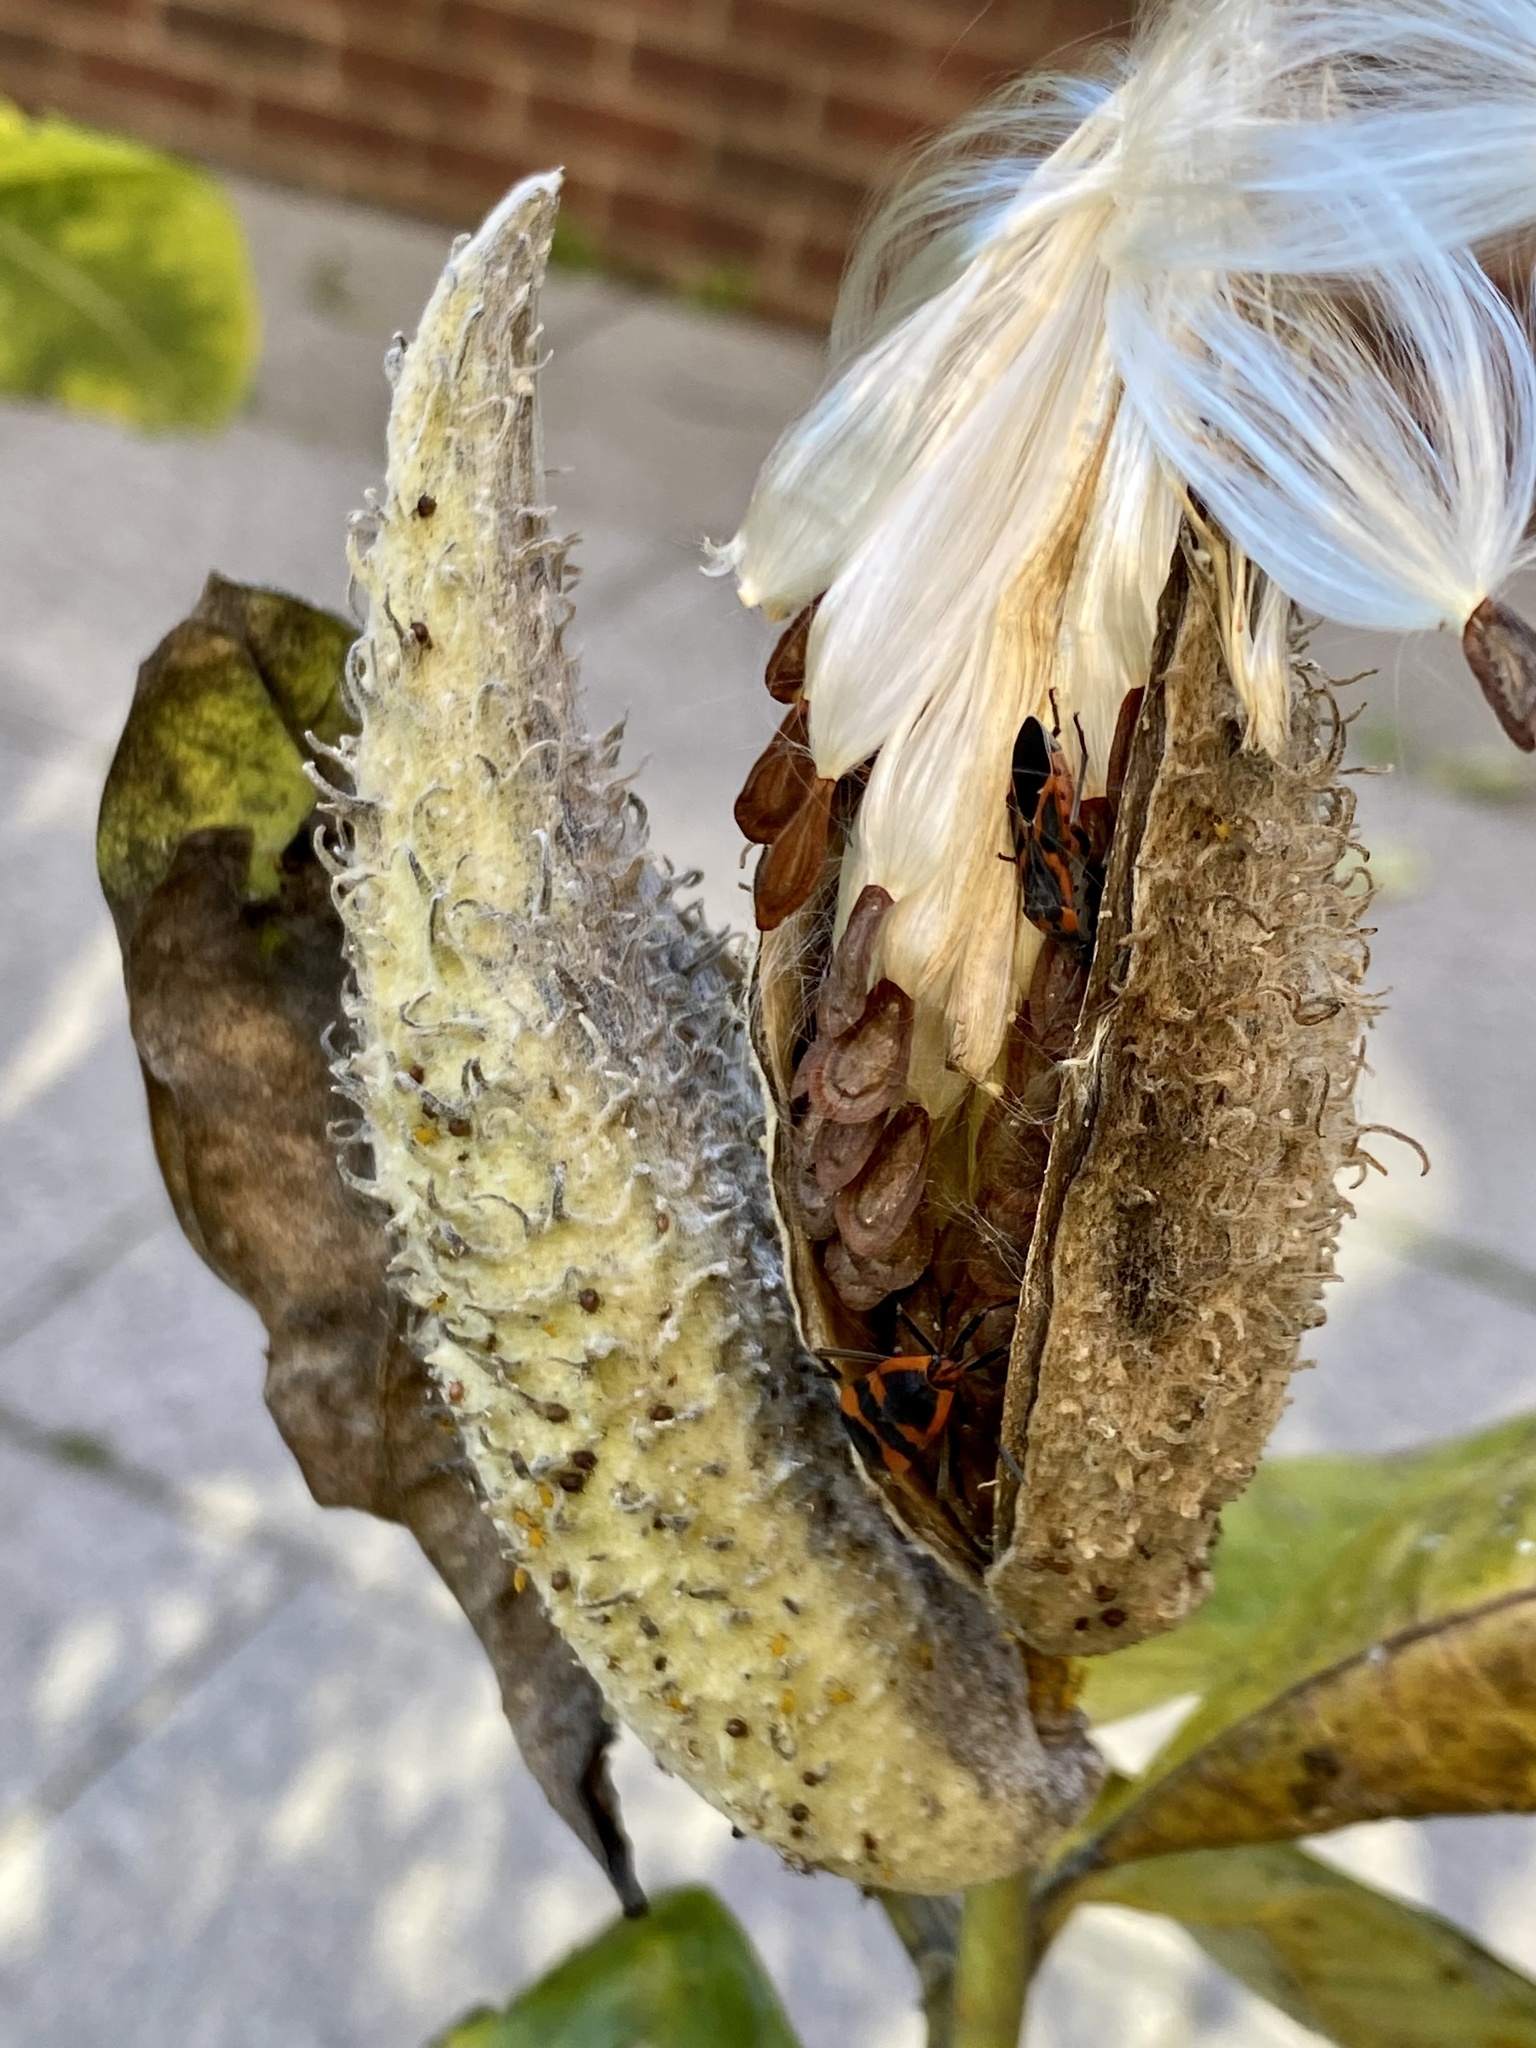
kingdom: Plantae
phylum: Tracheophyta
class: Magnoliopsida
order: Gentianales
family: Apocynaceae
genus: Asclepias
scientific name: Asclepias syriaca
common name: Common milkweed
